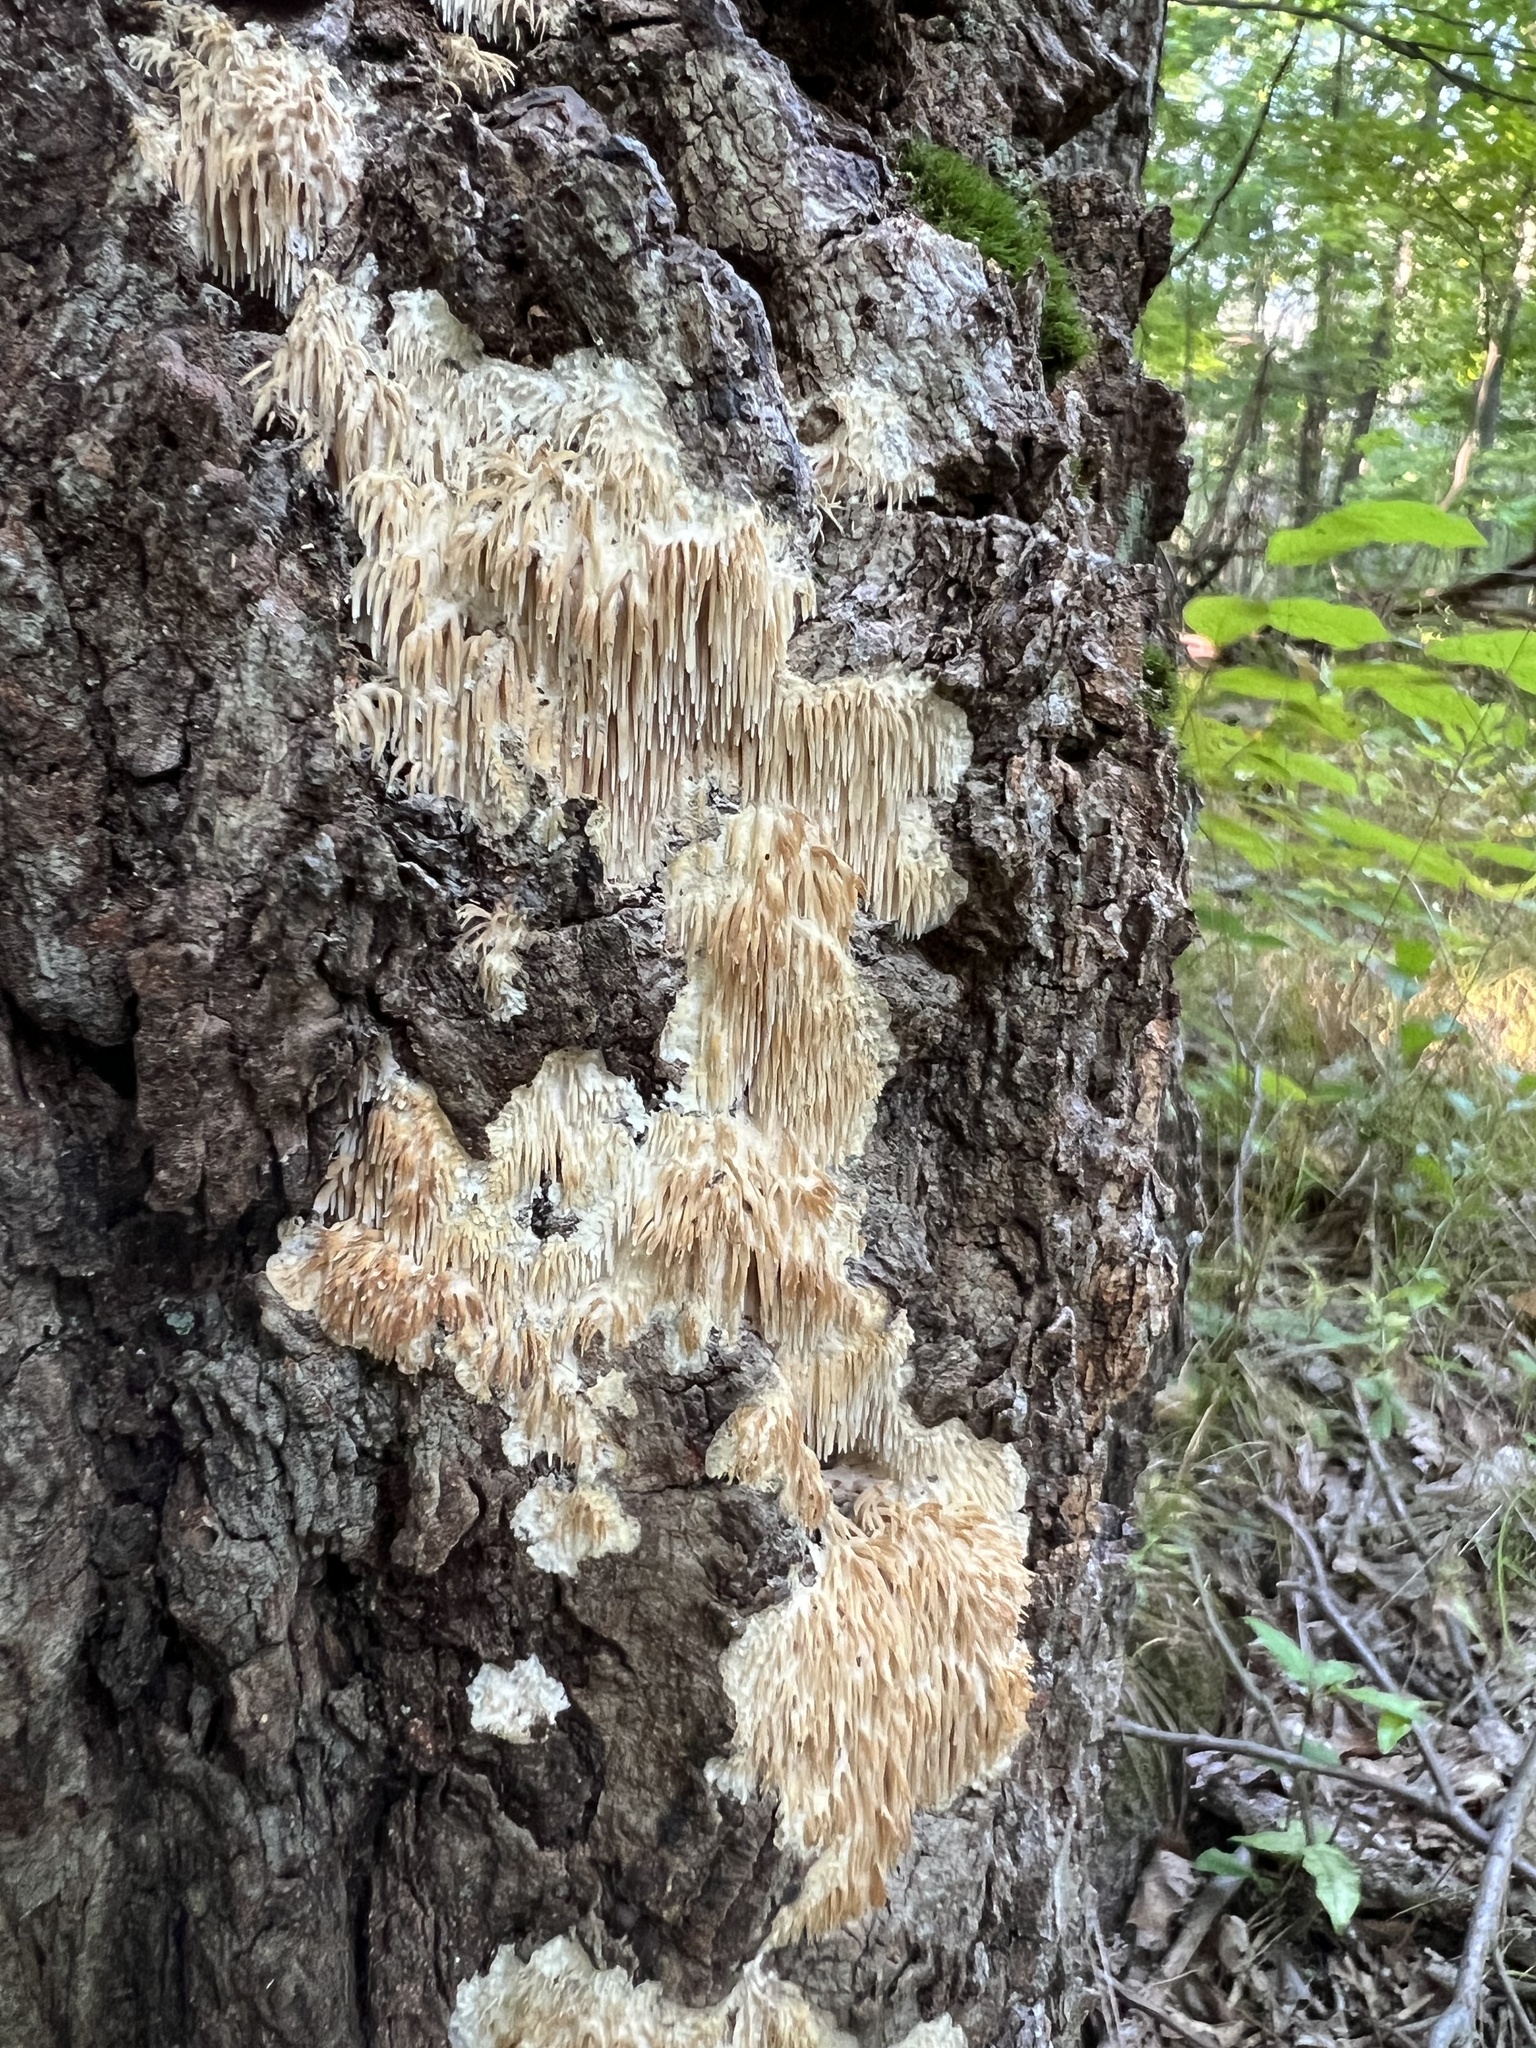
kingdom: Fungi
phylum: Basidiomycota
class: Agaricomycetes
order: Agaricales
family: Radulomycetaceae
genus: Radulomyces
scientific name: Radulomyces copelandii
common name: Asian beauty
